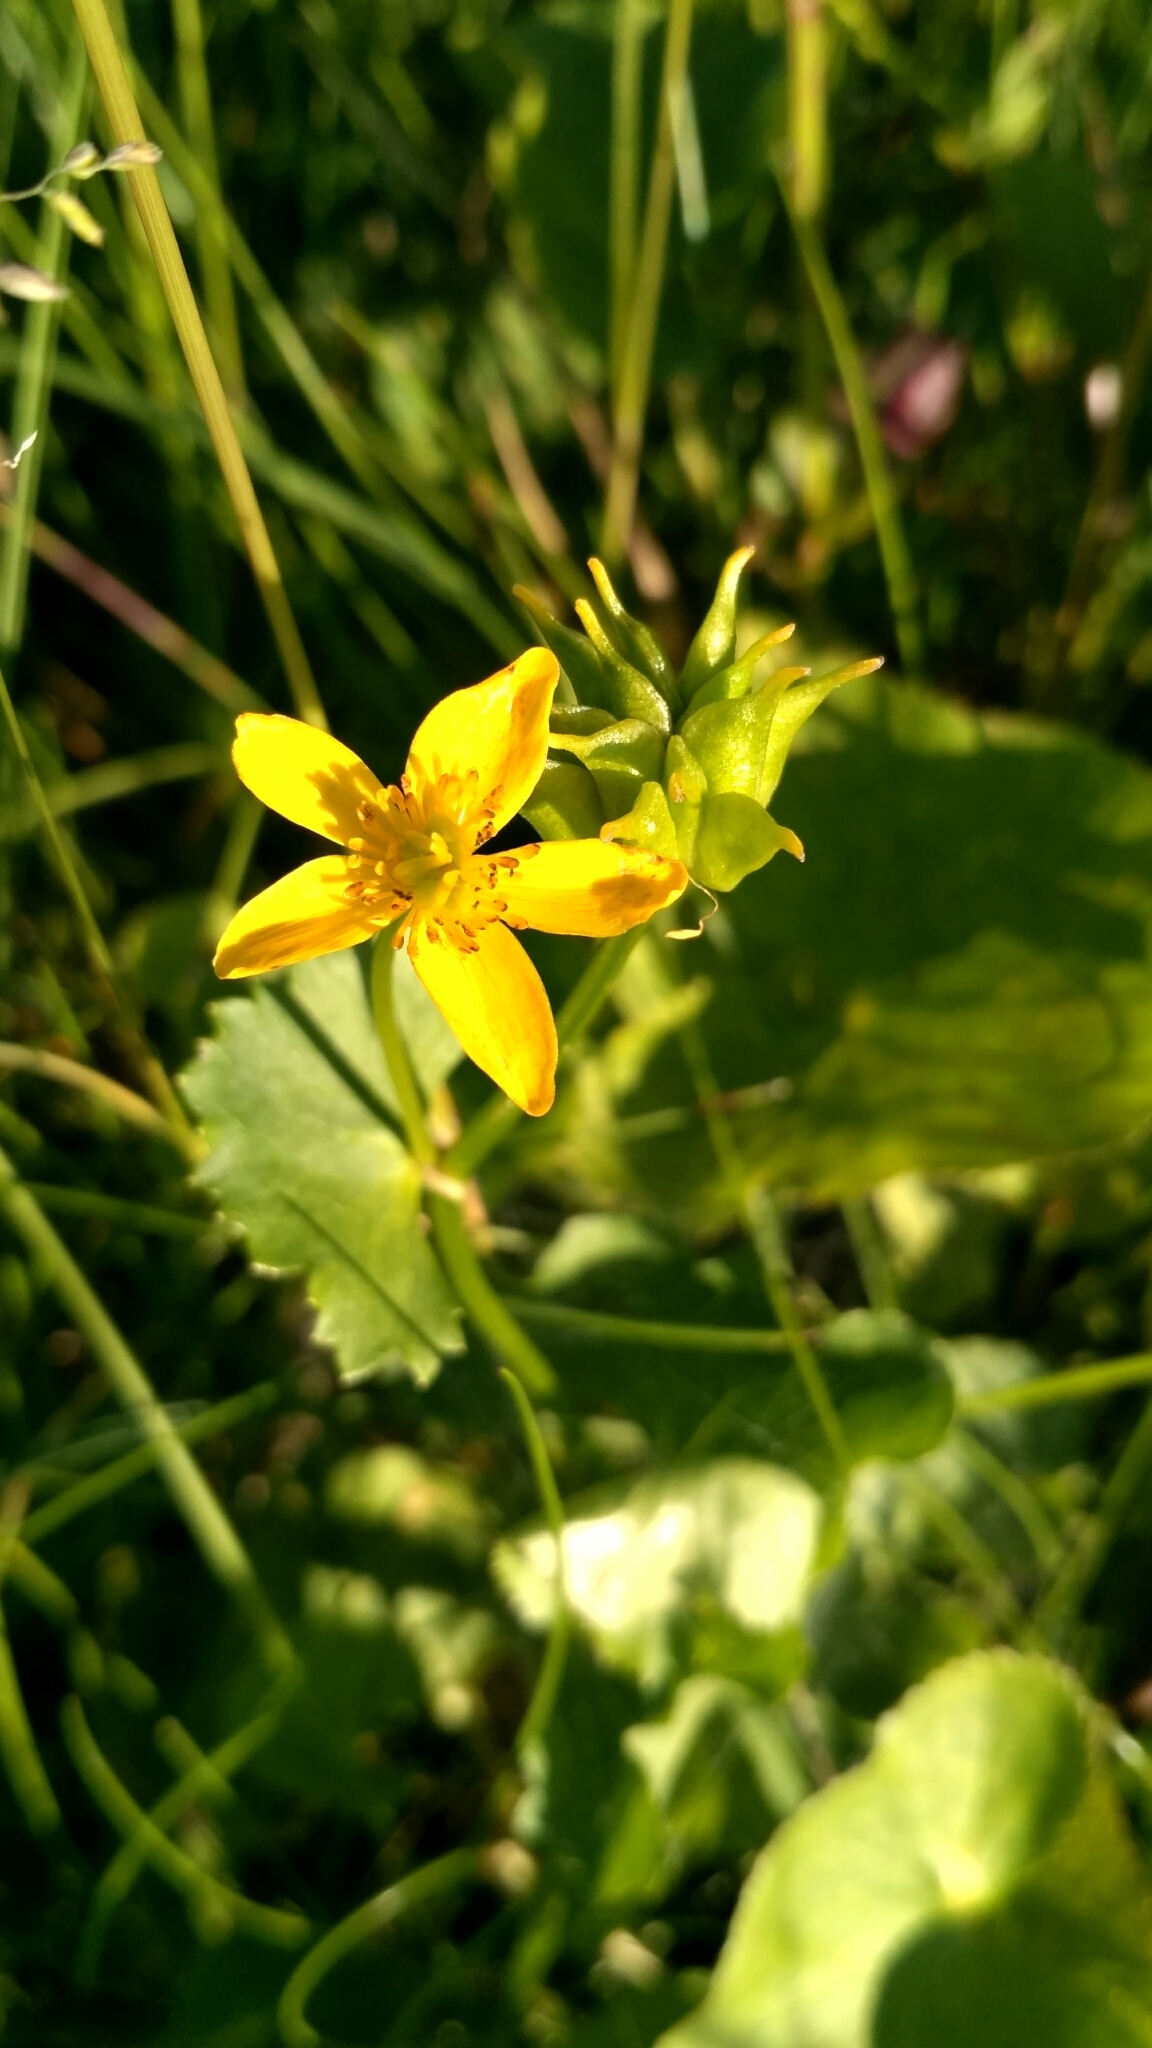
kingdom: Plantae
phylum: Tracheophyta
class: Magnoliopsida
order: Ranunculales
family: Ranunculaceae
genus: Caltha
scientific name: Caltha palustris
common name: Marsh marigold
